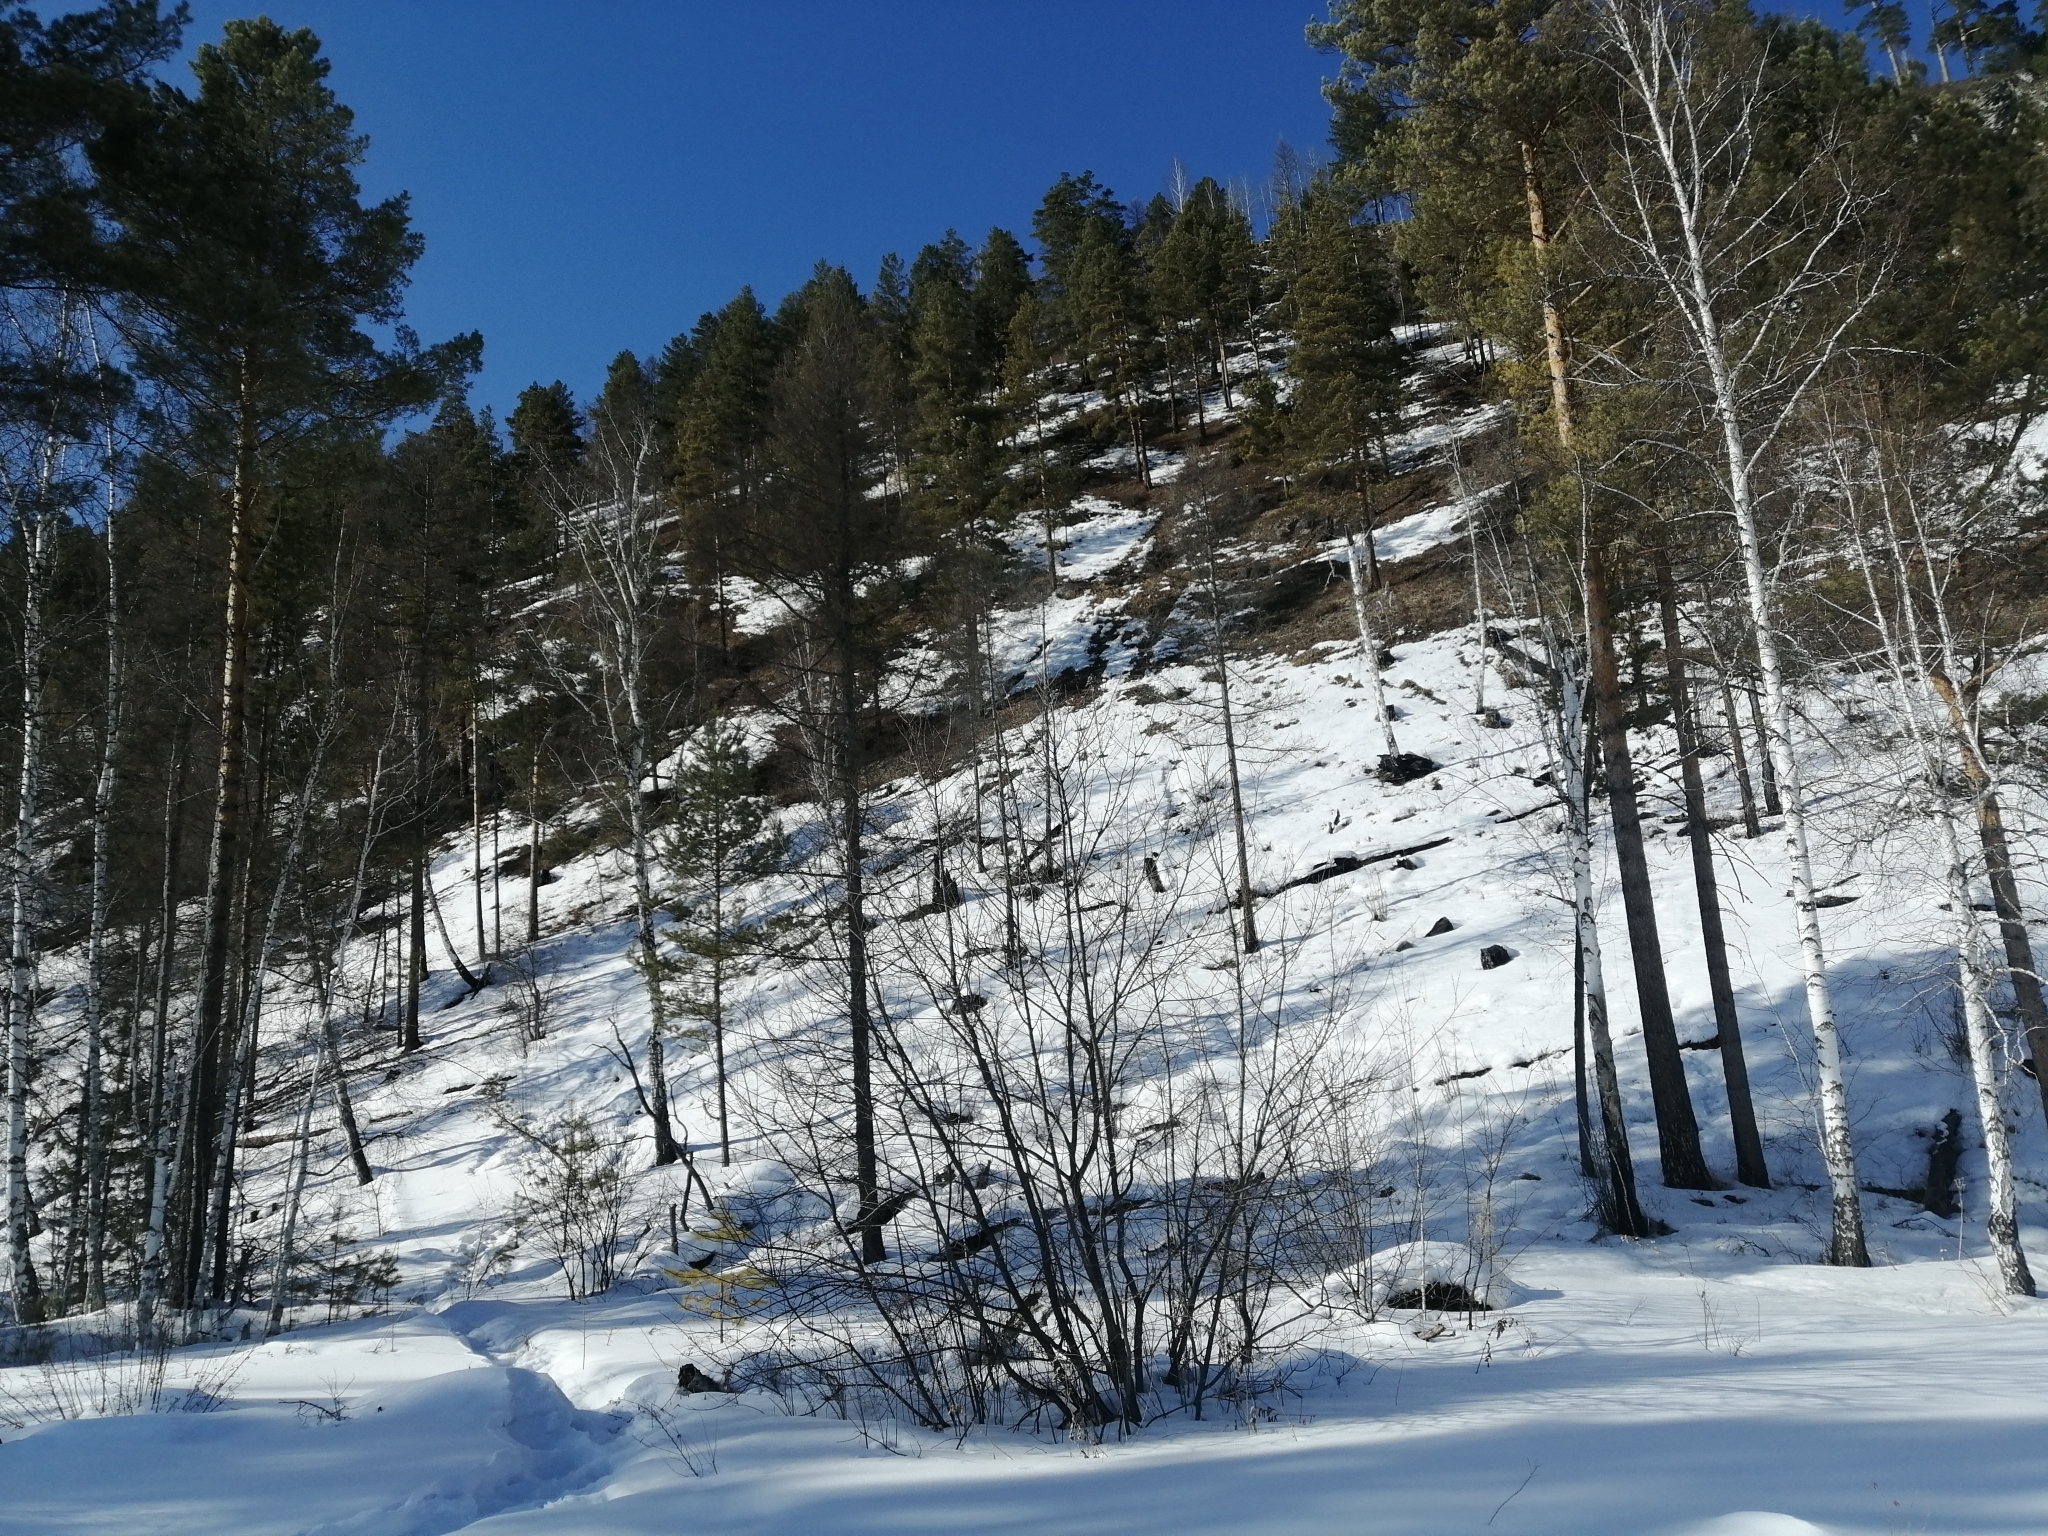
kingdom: Plantae
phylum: Tracheophyta
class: Pinopsida
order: Pinales
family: Pinaceae
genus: Pinus
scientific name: Pinus sylvestris
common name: Scots pine
